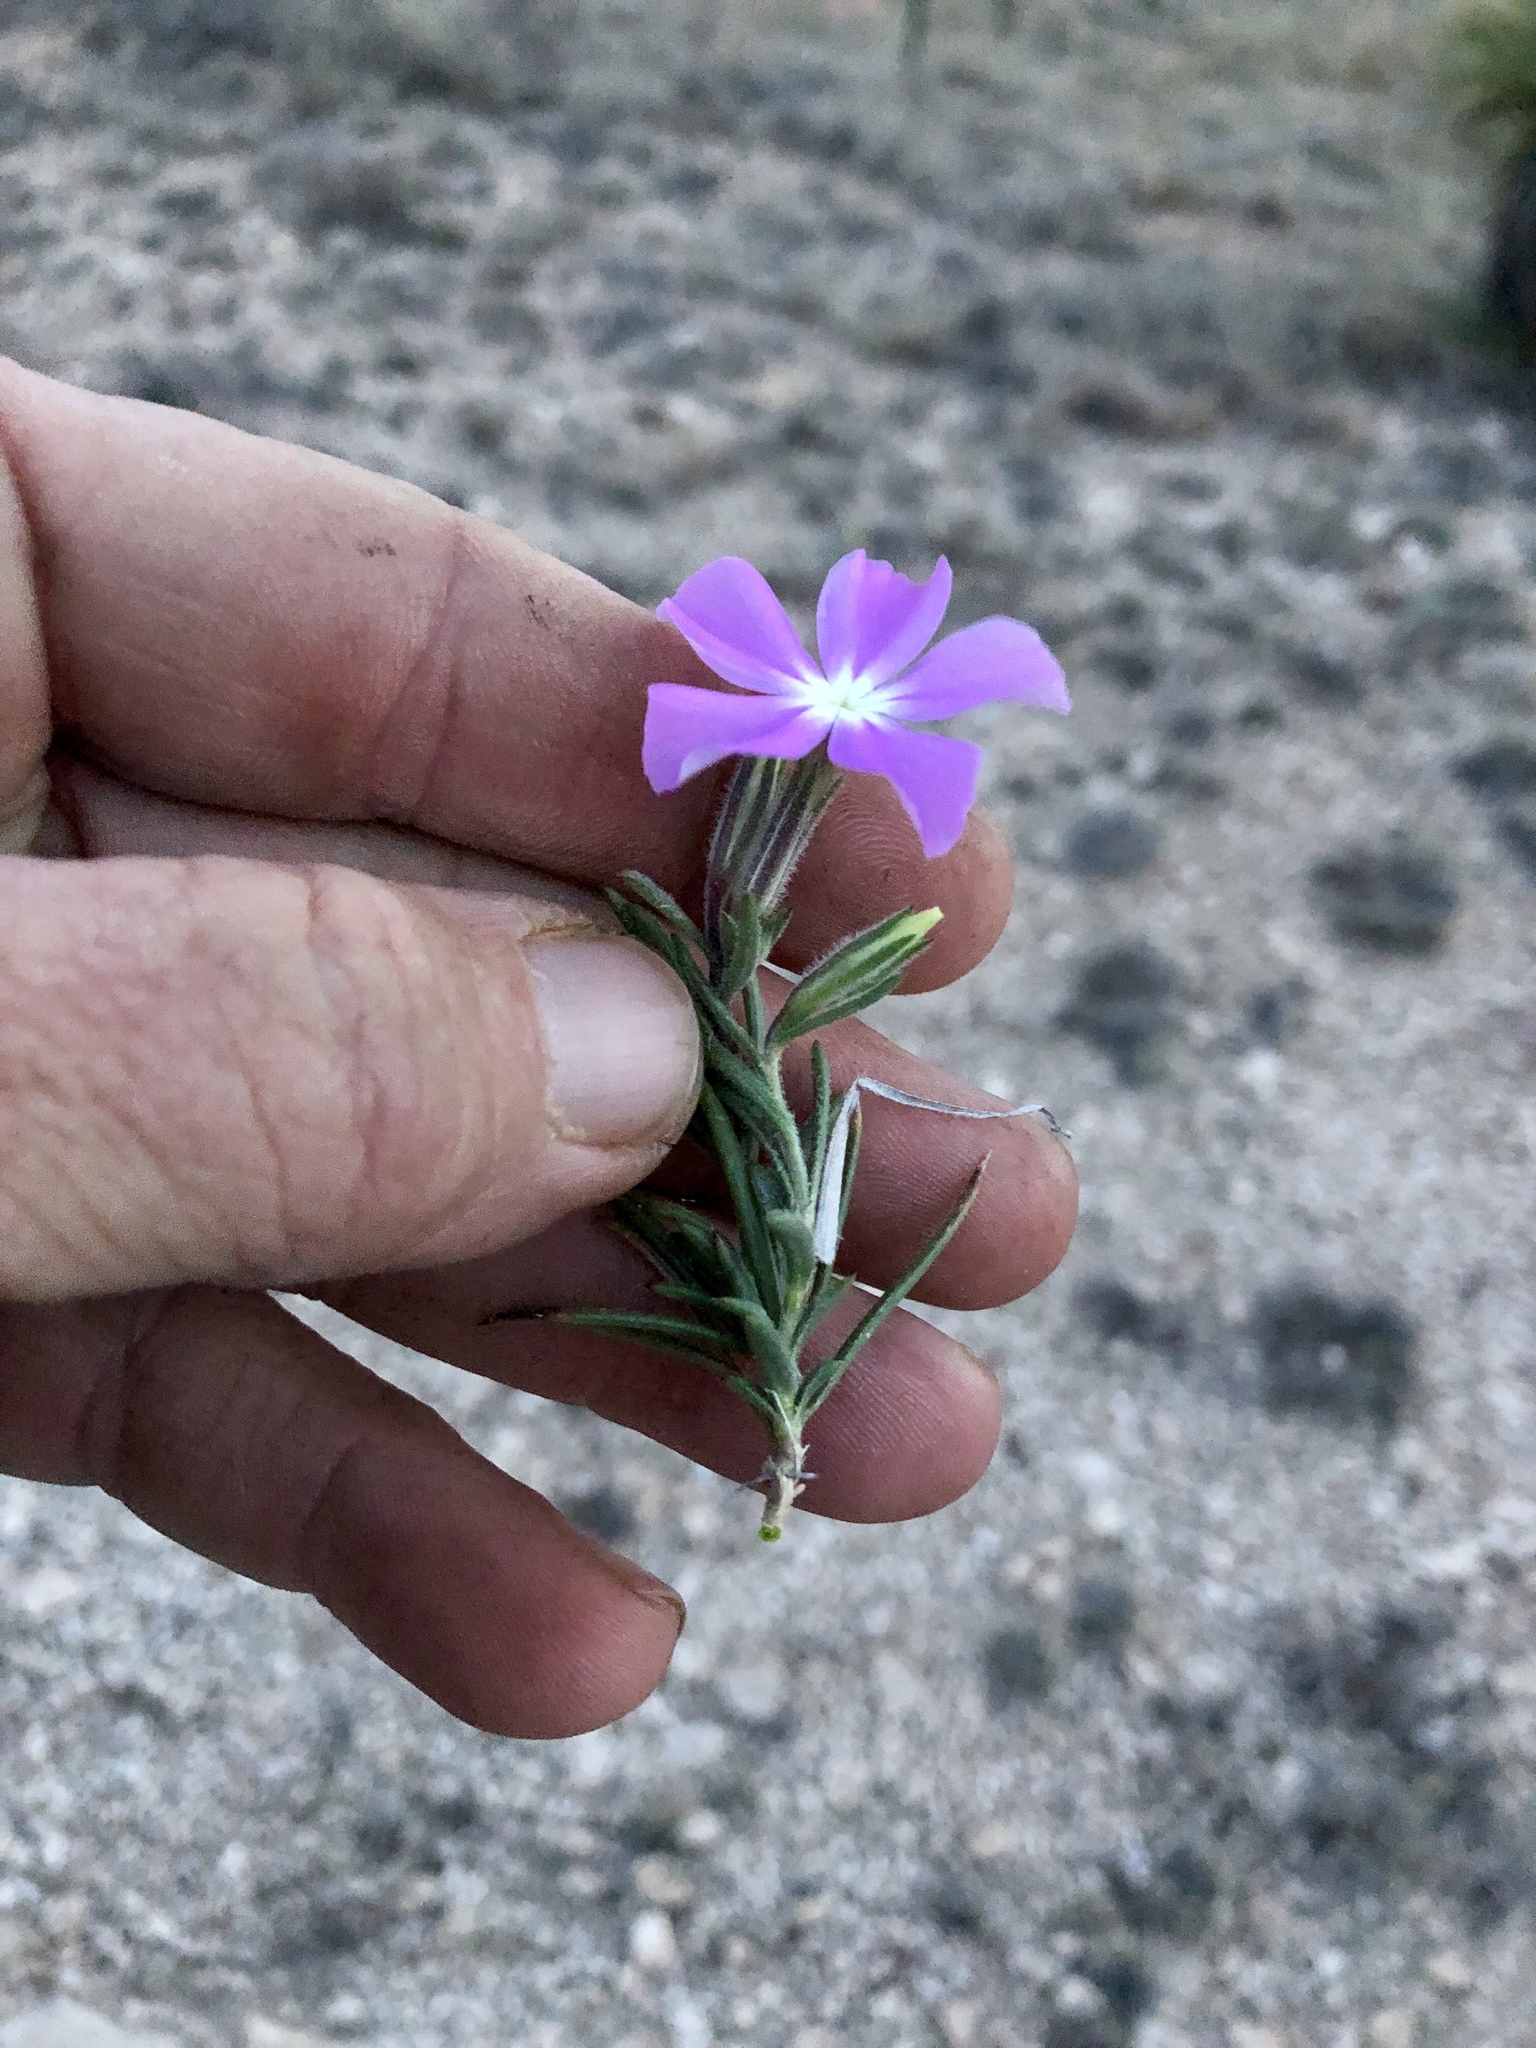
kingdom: Plantae
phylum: Tracheophyta
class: Magnoliopsida
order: Ericales
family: Polemoniaceae
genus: Phlox
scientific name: Phlox nana
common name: Santa fe phlox
